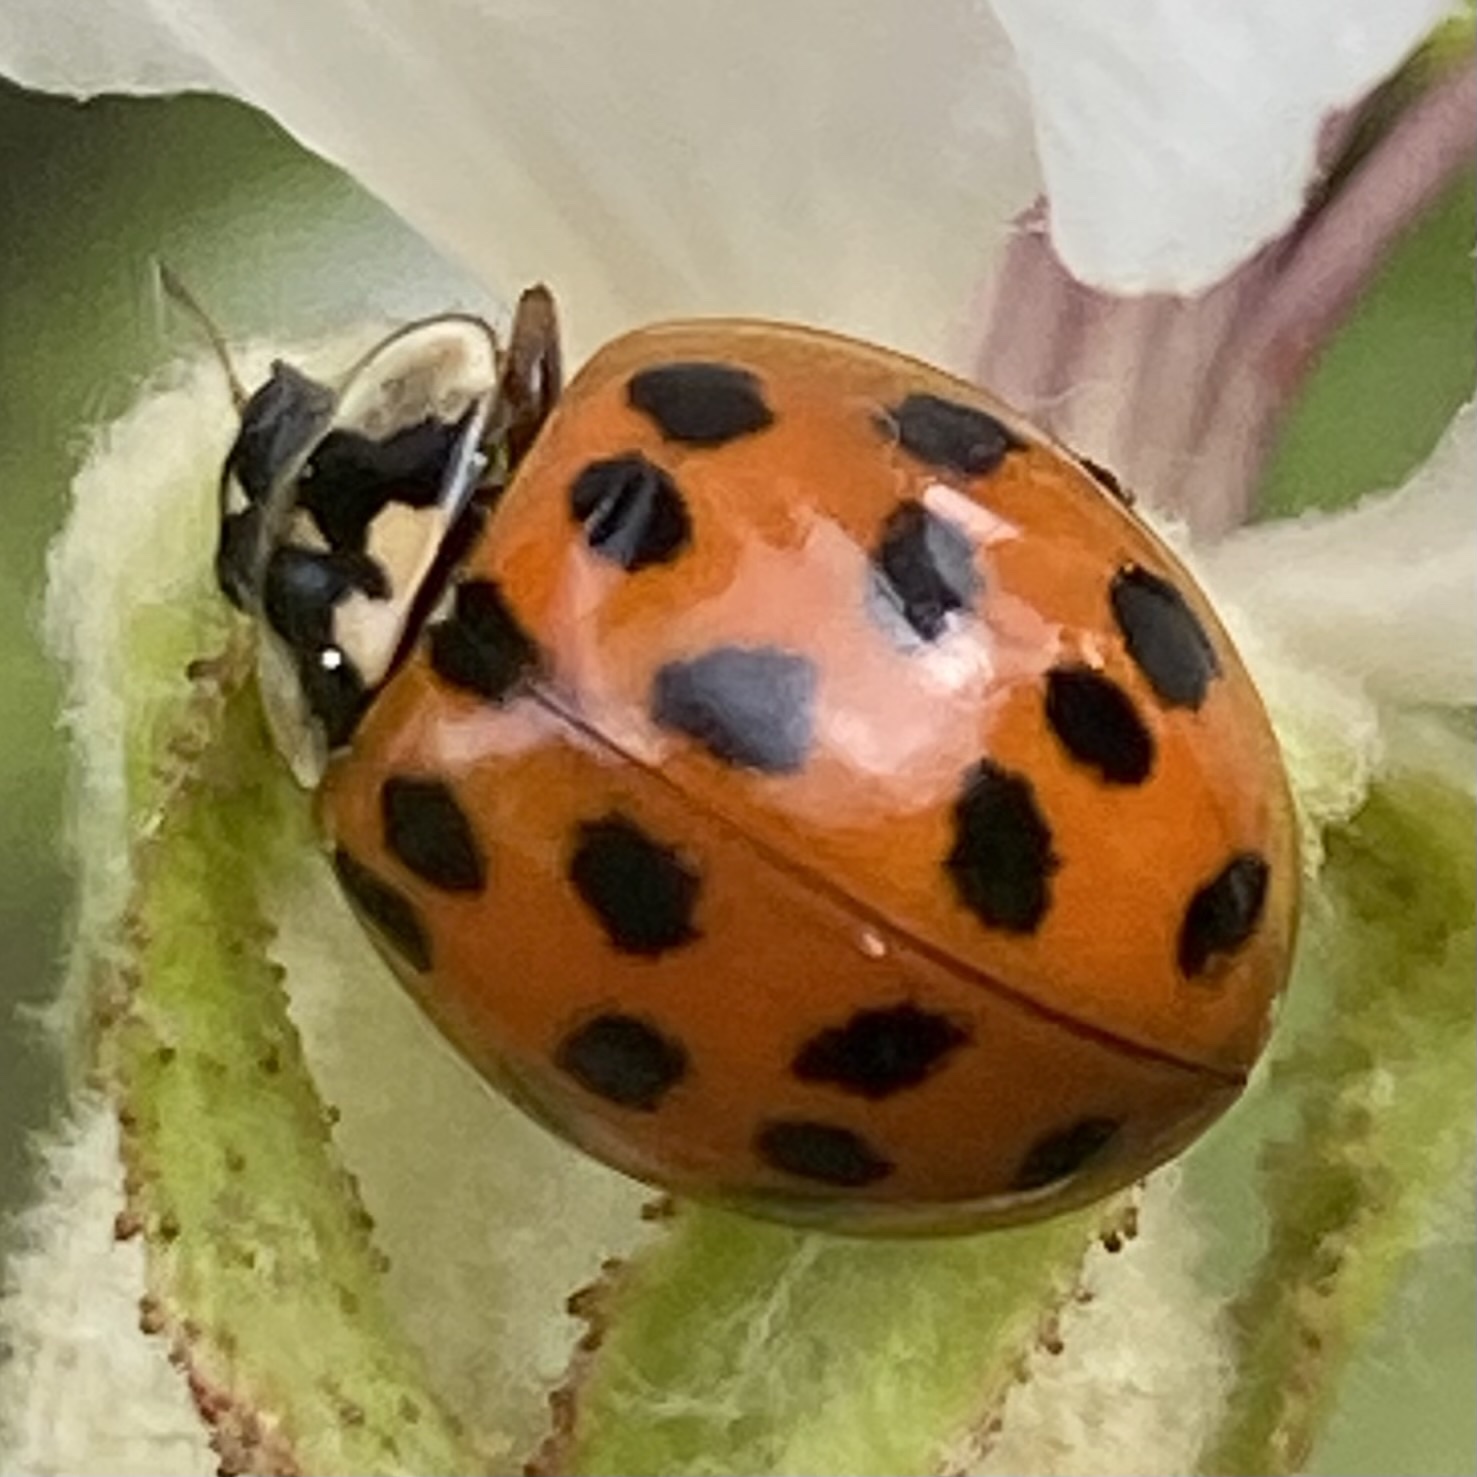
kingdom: Animalia
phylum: Arthropoda
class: Insecta
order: Coleoptera
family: Coccinellidae
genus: Harmonia
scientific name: Harmonia axyridis
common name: Harlequin ladybird
